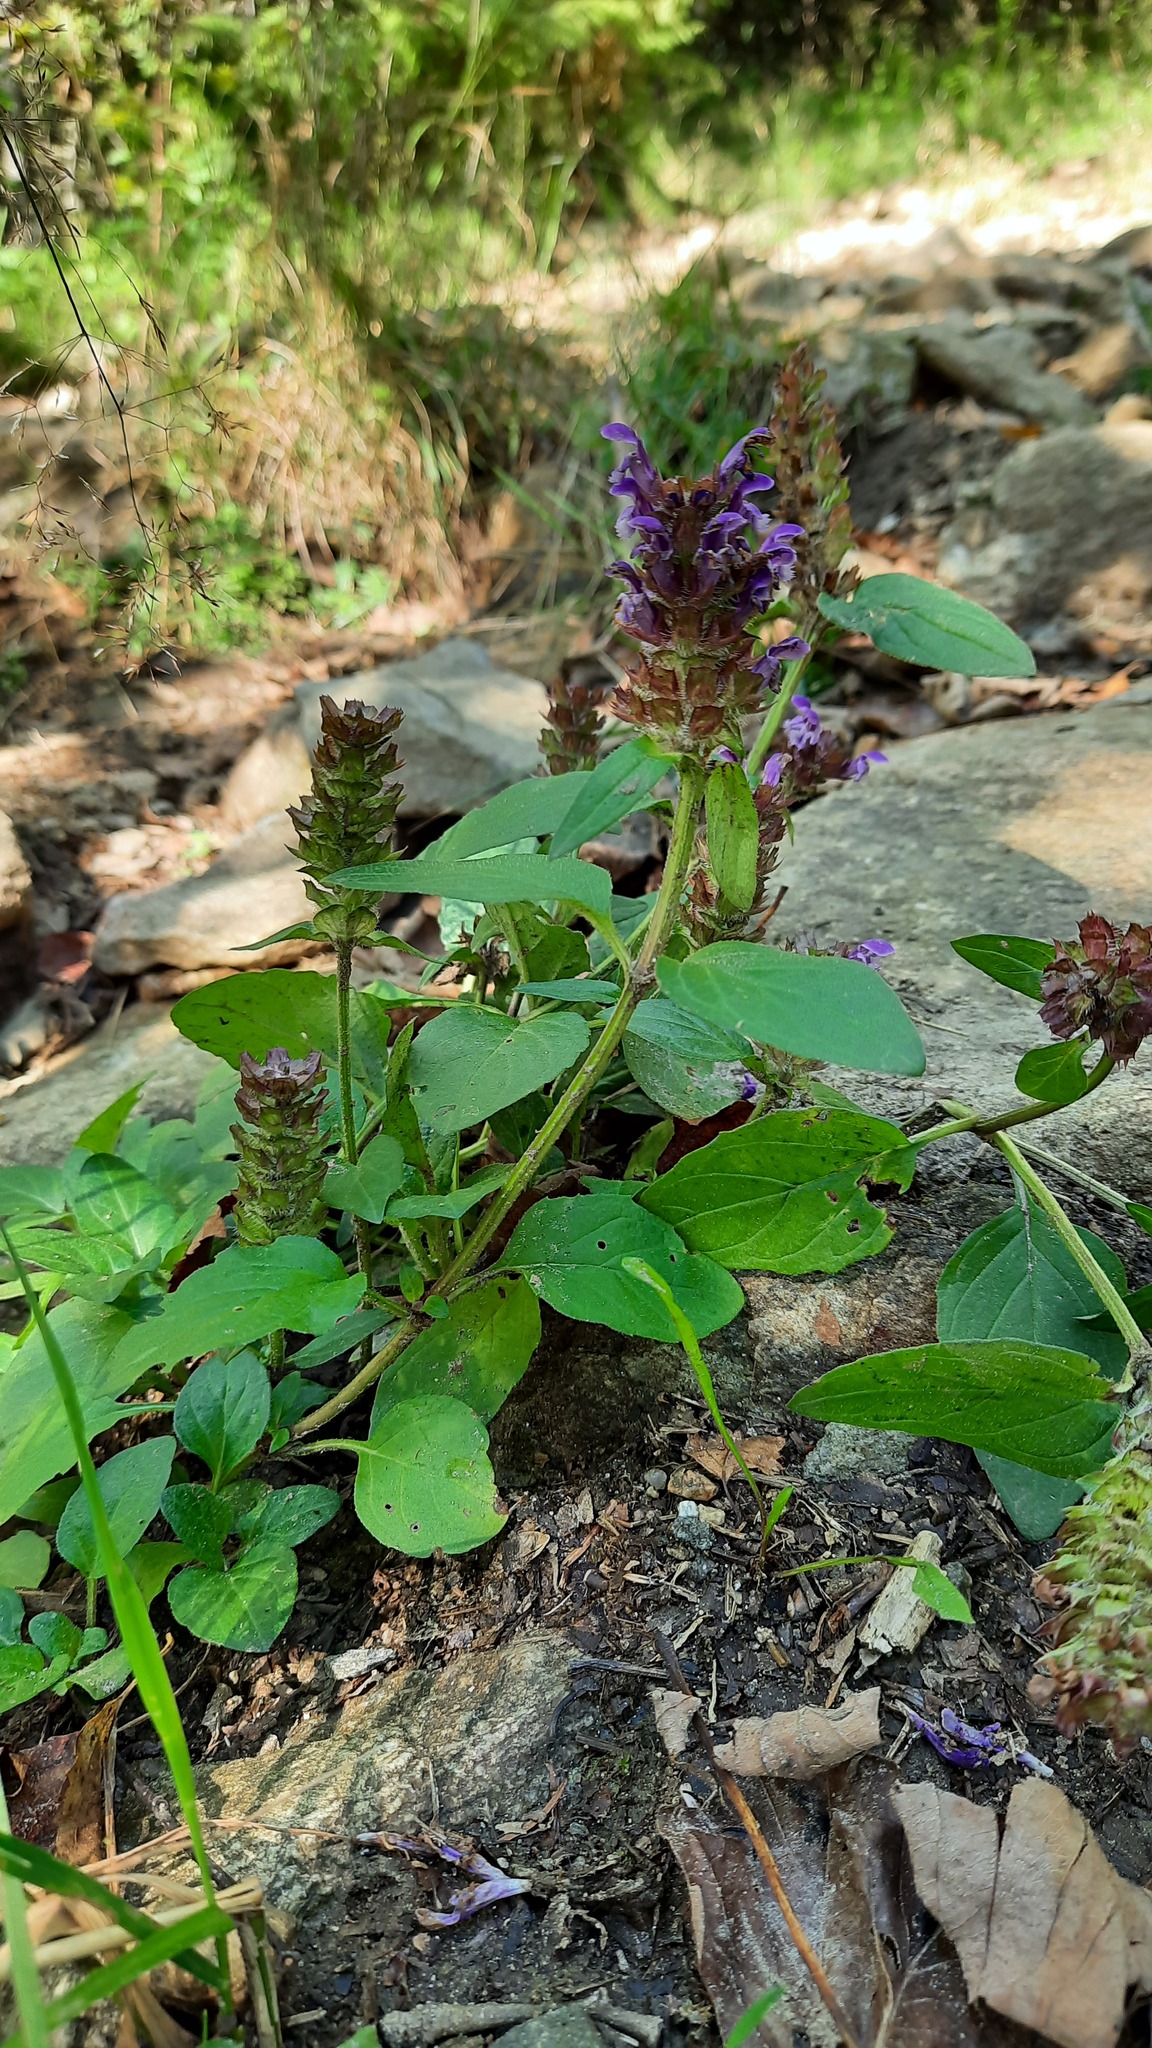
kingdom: Plantae
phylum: Tracheophyta
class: Magnoliopsida
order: Lamiales
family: Lamiaceae
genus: Prunella
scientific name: Prunella vulgaris
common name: Heal-all
